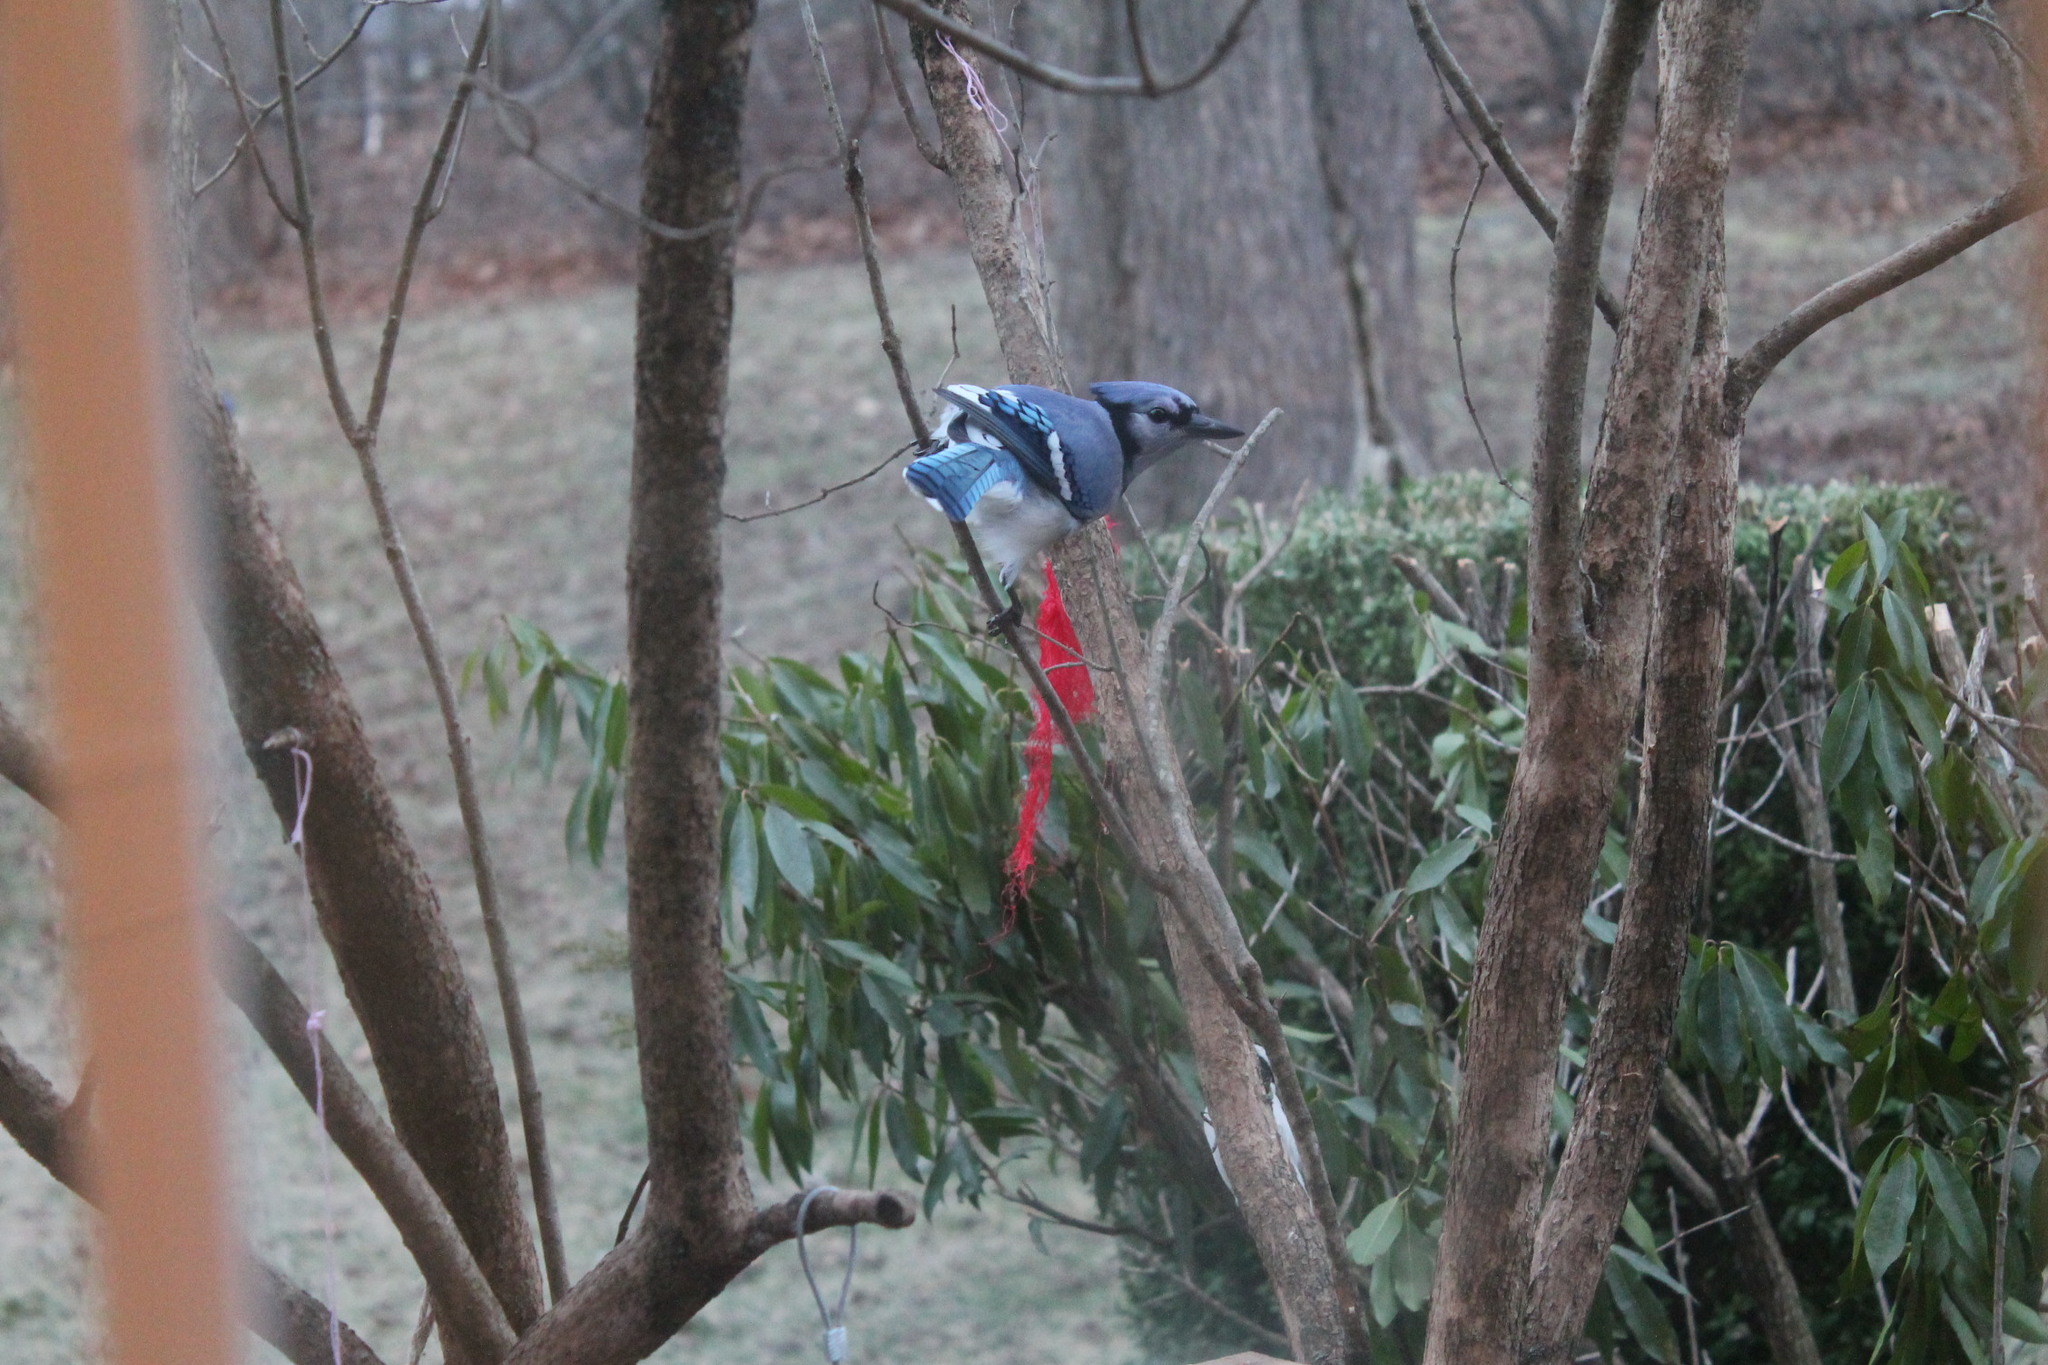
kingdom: Animalia
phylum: Chordata
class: Aves
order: Passeriformes
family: Corvidae
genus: Cyanocitta
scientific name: Cyanocitta cristata
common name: Blue jay
